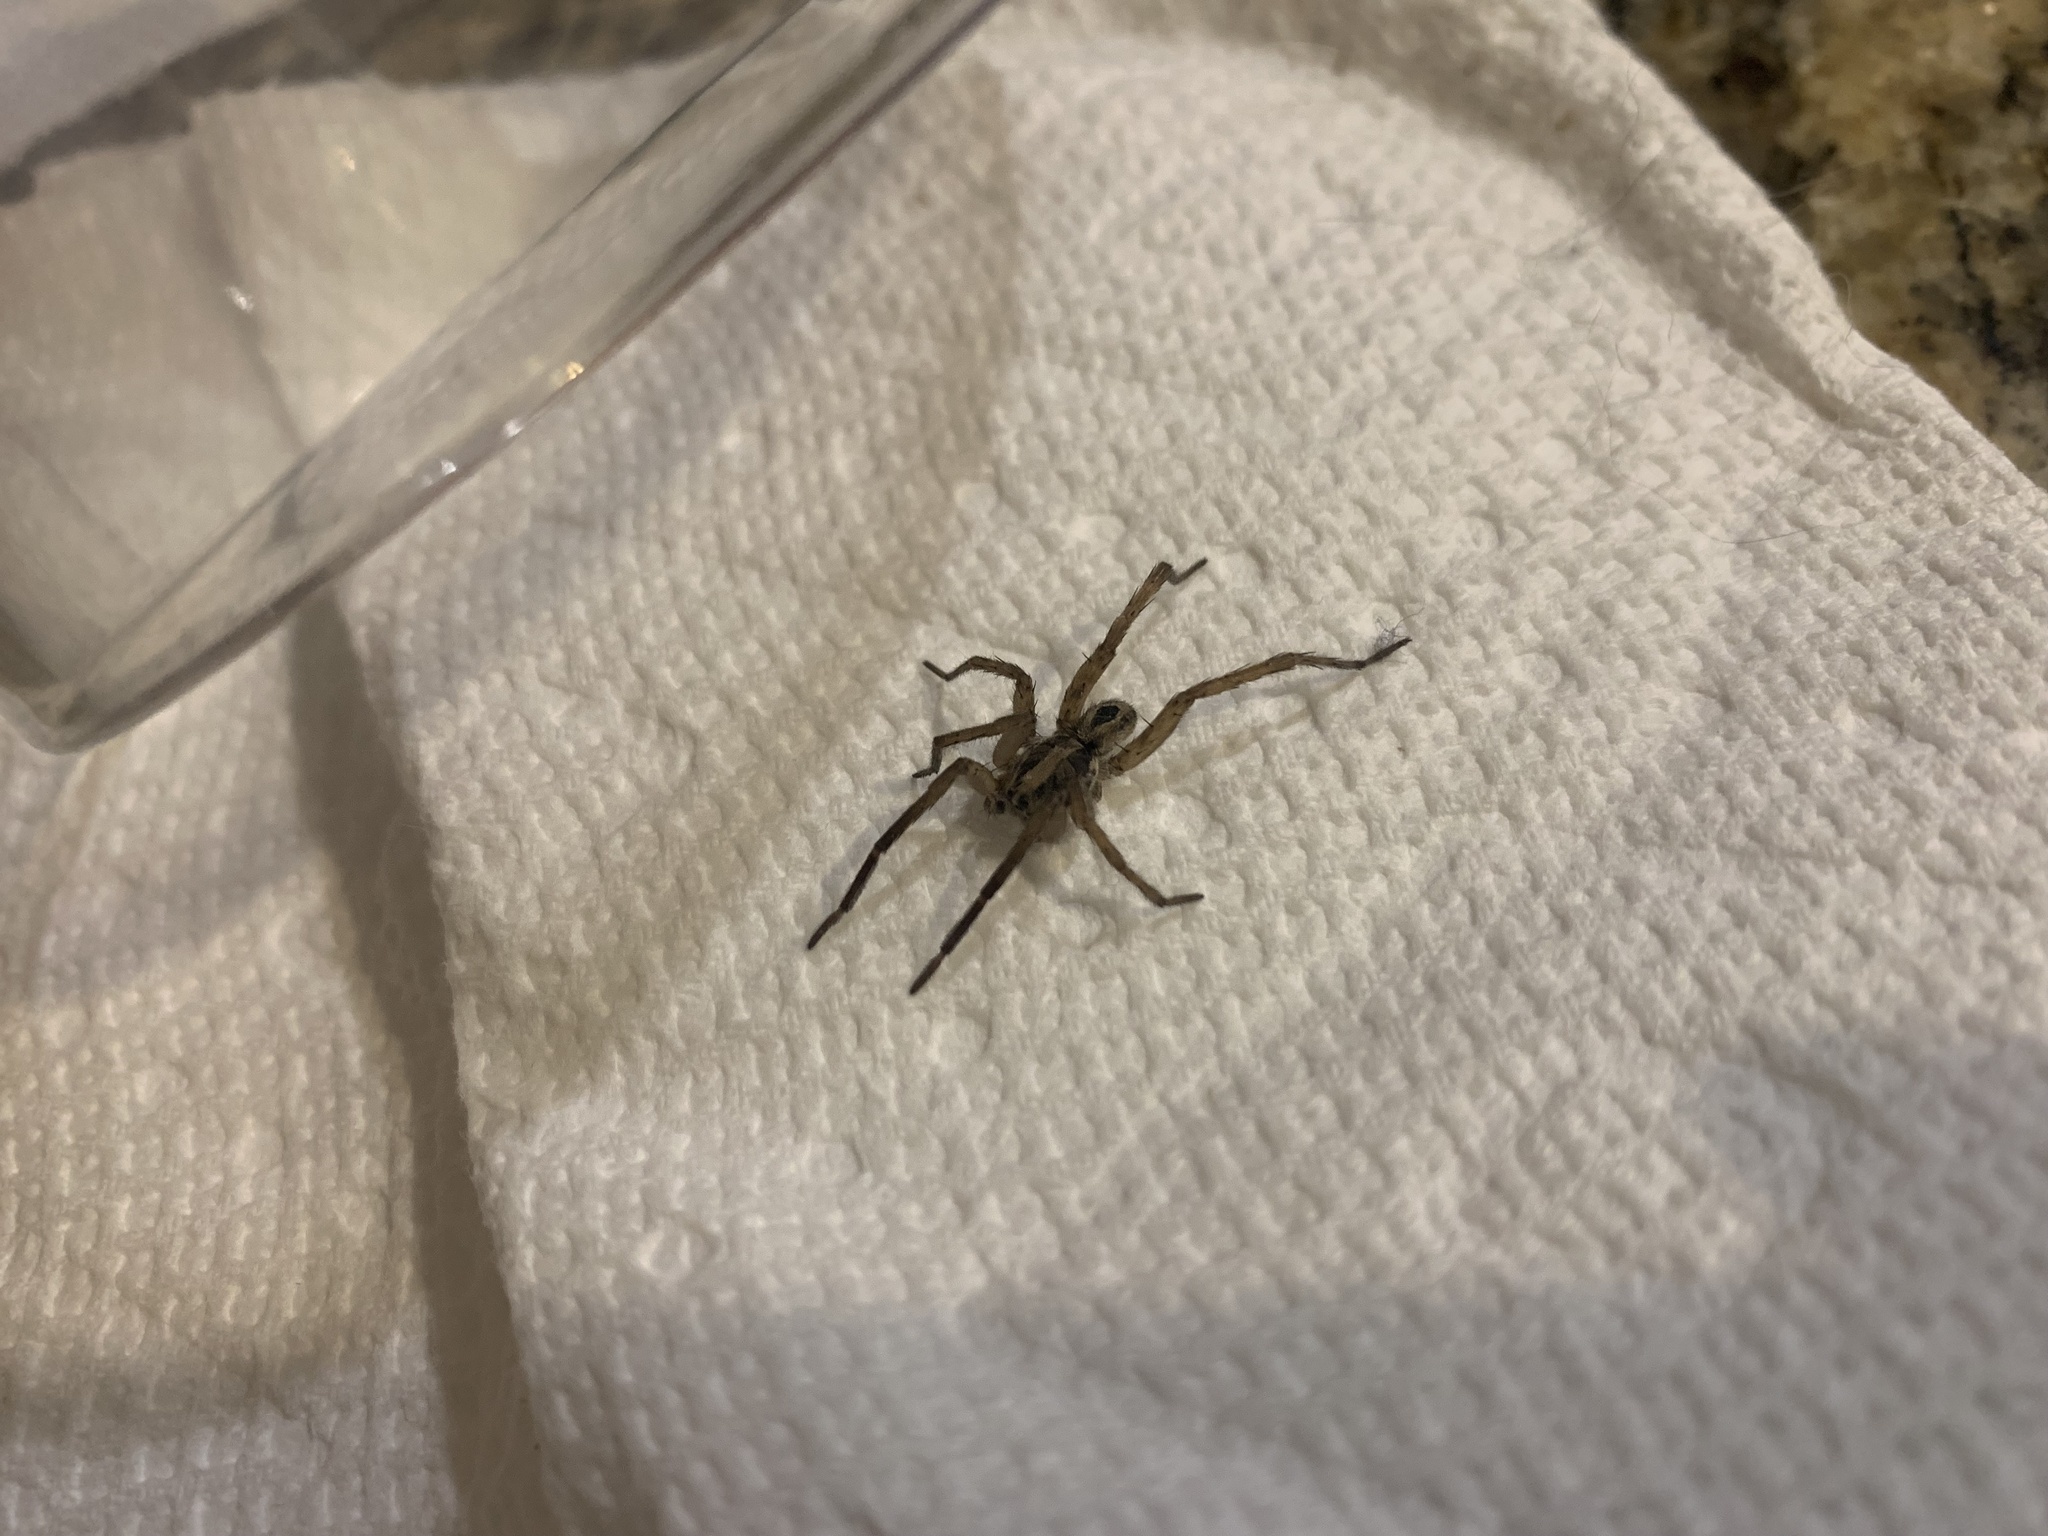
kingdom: Animalia
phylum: Arthropoda
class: Arachnida
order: Araneae
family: Lycosidae
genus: Schizocosa
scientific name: Schizocosa avida
